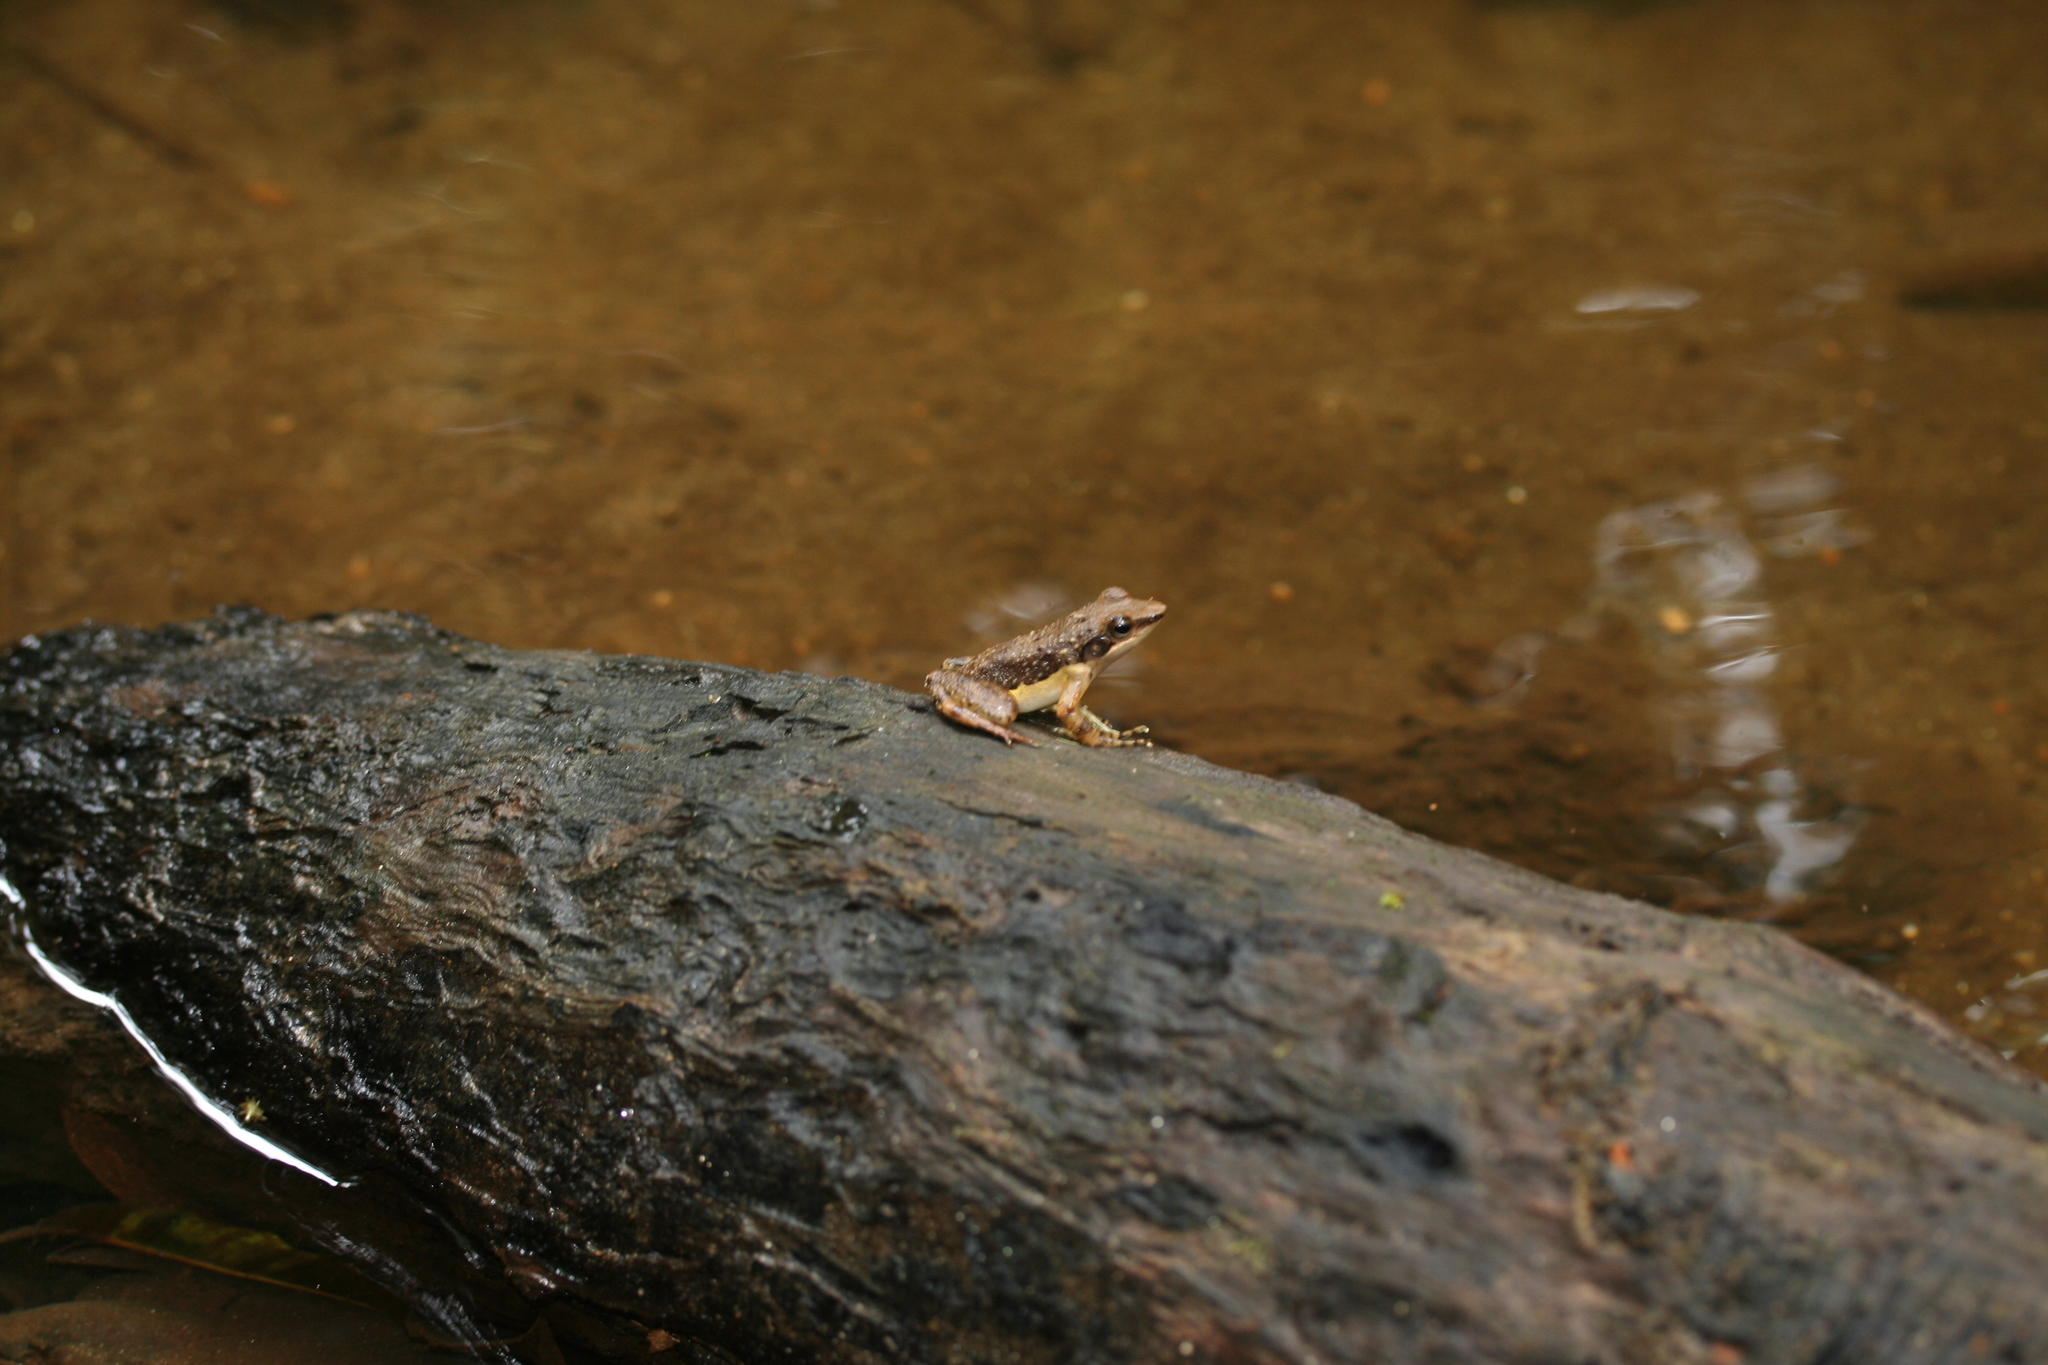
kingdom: Animalia
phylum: Chordata
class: Amphibia
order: Anura
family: Mantellidae
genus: Mantidactylus
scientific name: Mantidactylus majori
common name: Ivohimanita madagascar frog
